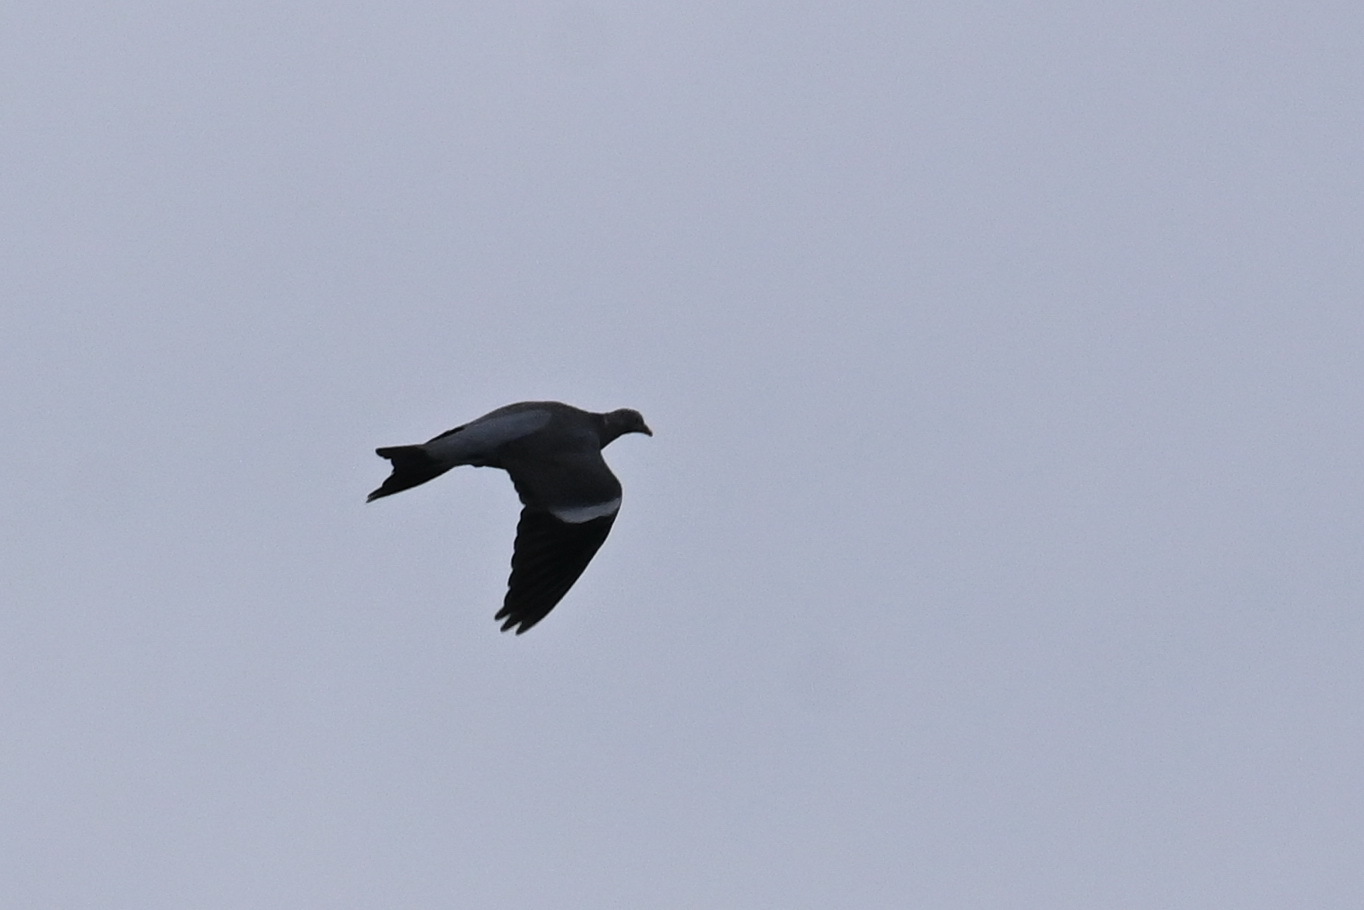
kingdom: Animalia
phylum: Chordata
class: Aves
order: Columbiformes
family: Columbidae
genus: Columba
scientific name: Columba palumbus
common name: Common wood pigeon
